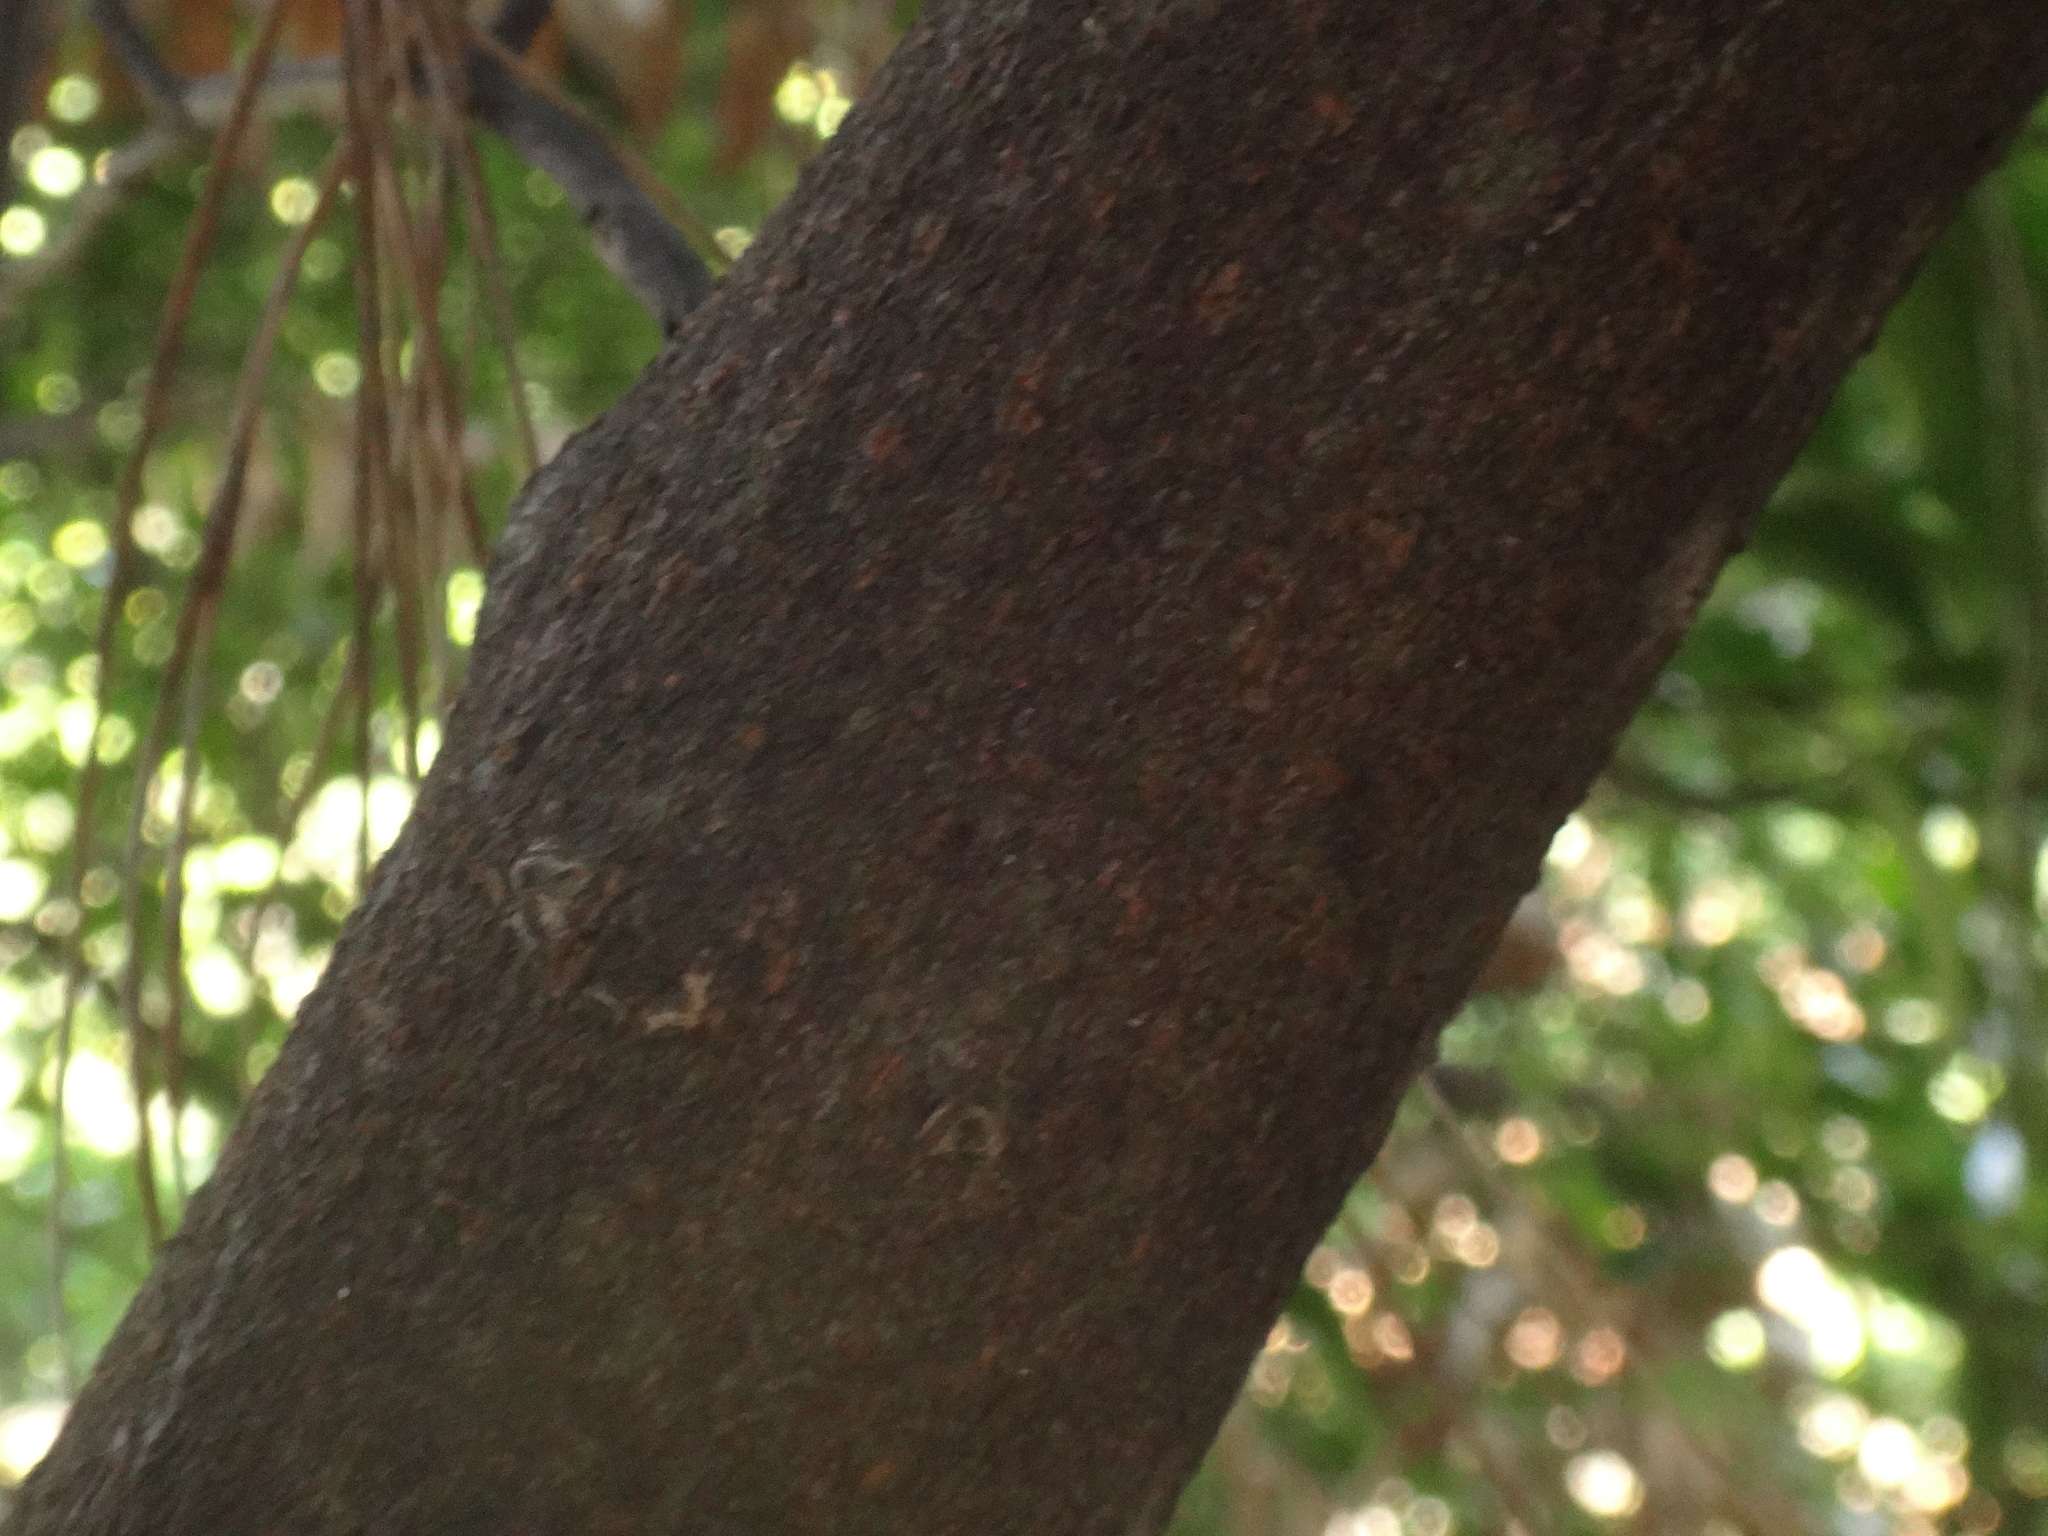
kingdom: Plantae
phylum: Tracheophyta
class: Magnoliopsida
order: Ericales
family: Pentaphylacaceae
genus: Visnea
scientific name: Visnea mocanera
